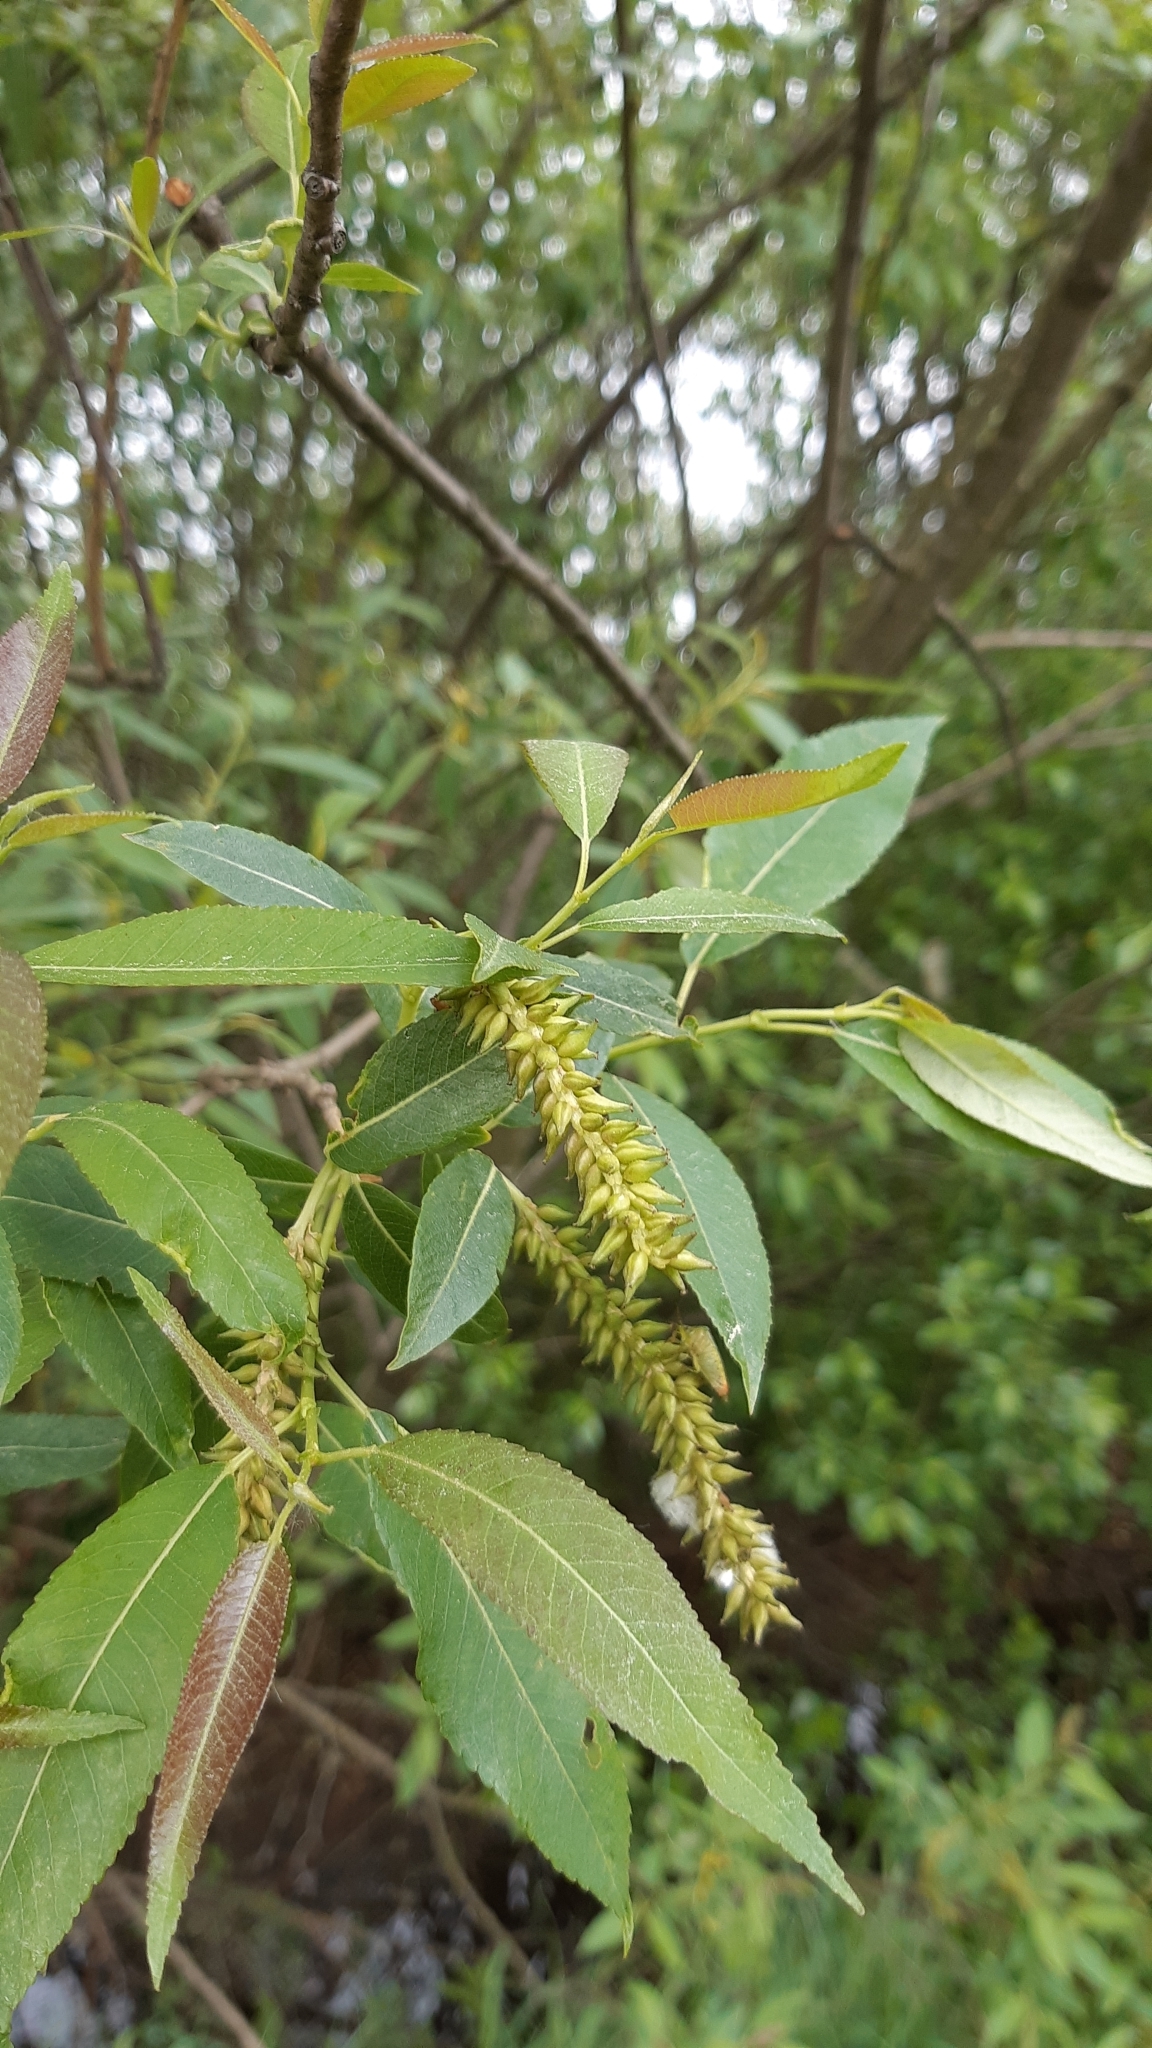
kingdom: Plantae
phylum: Tracheophyta
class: Magnoliopsida
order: Malpighiales
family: Salicaceae
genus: Salix
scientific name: Salix triandra
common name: Almond willow
